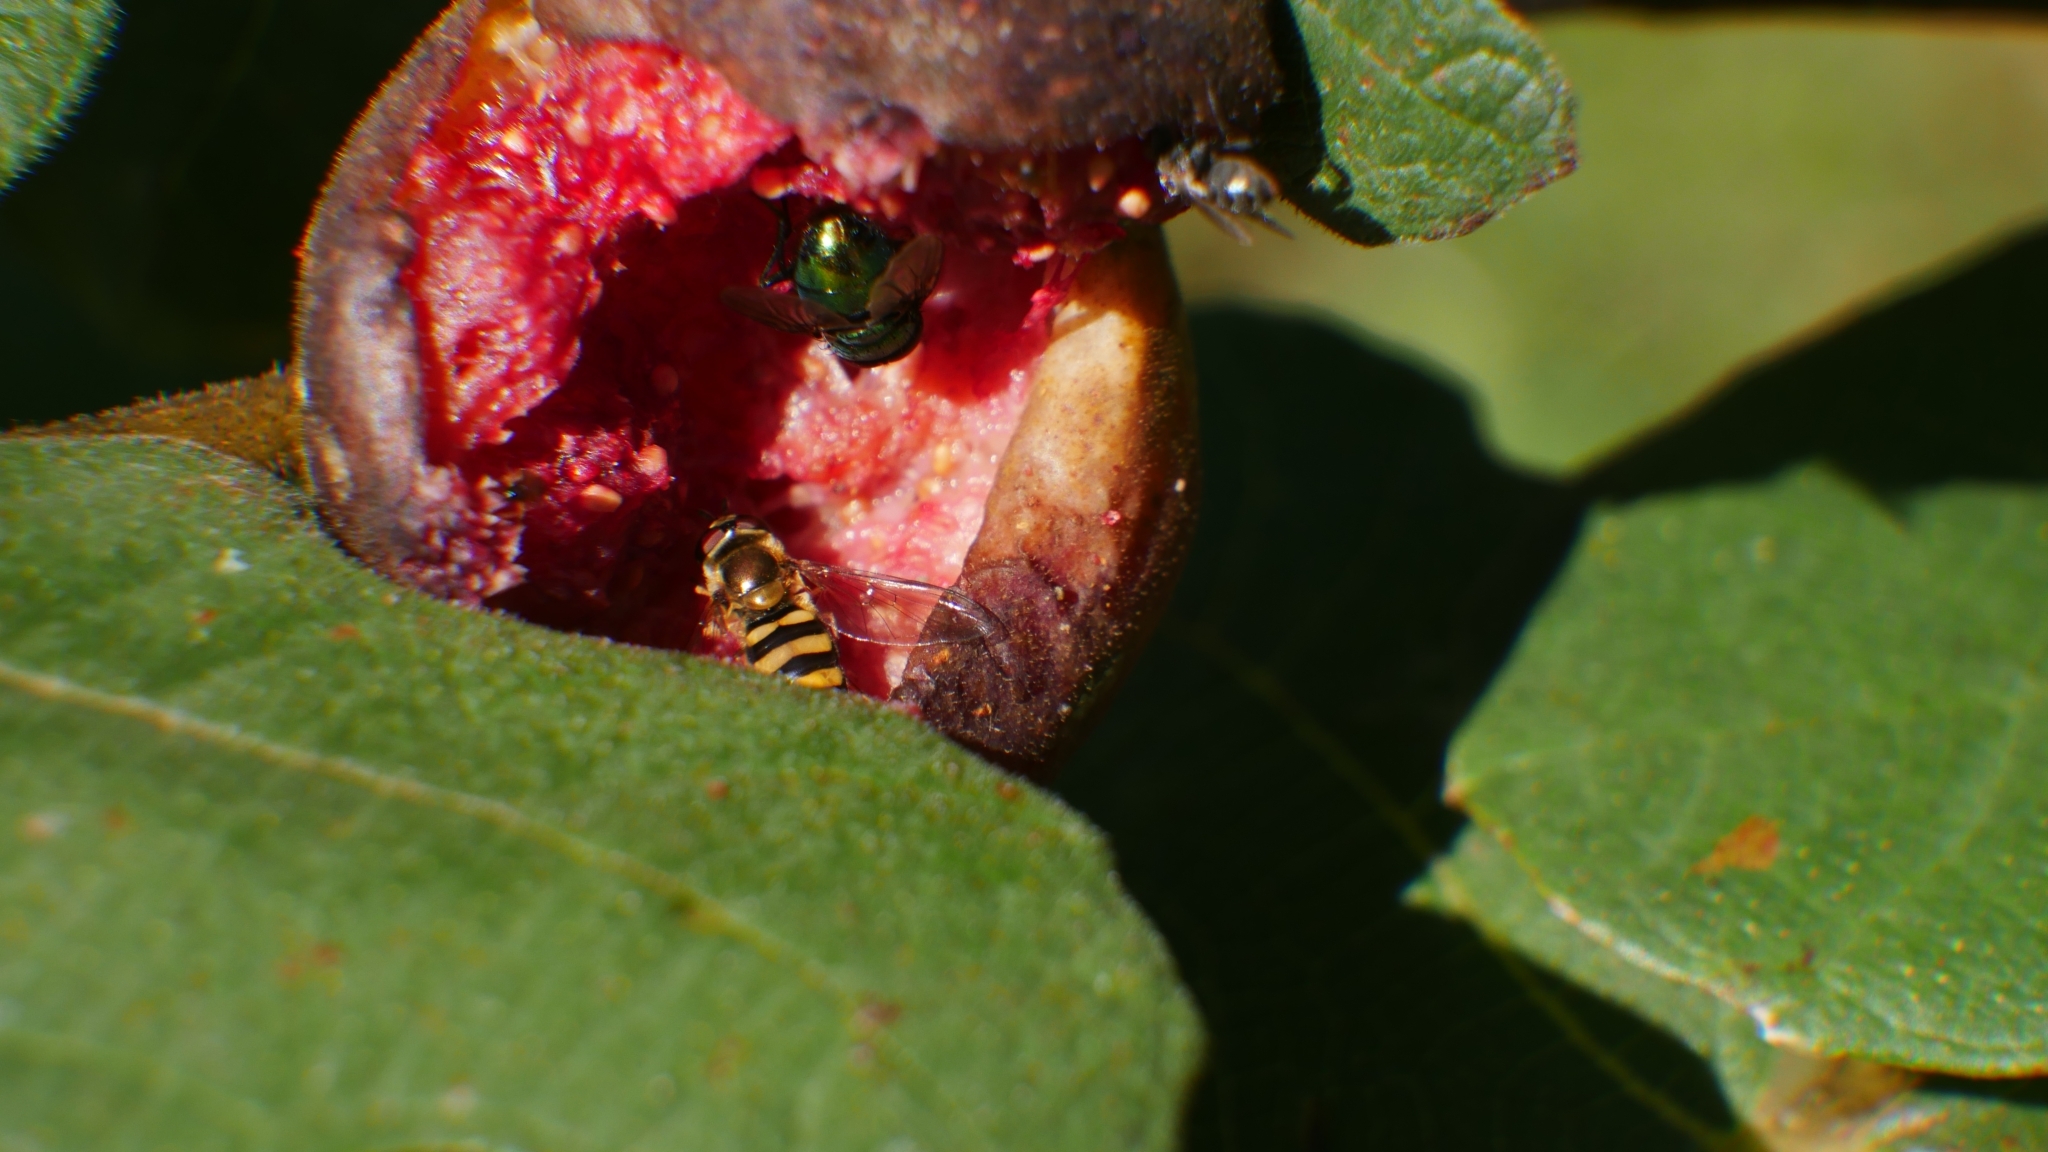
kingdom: Animalia
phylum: Arthropoda
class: Insecta
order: Diptera
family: Syrphidae
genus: Eupeodes
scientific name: Eupeodes
